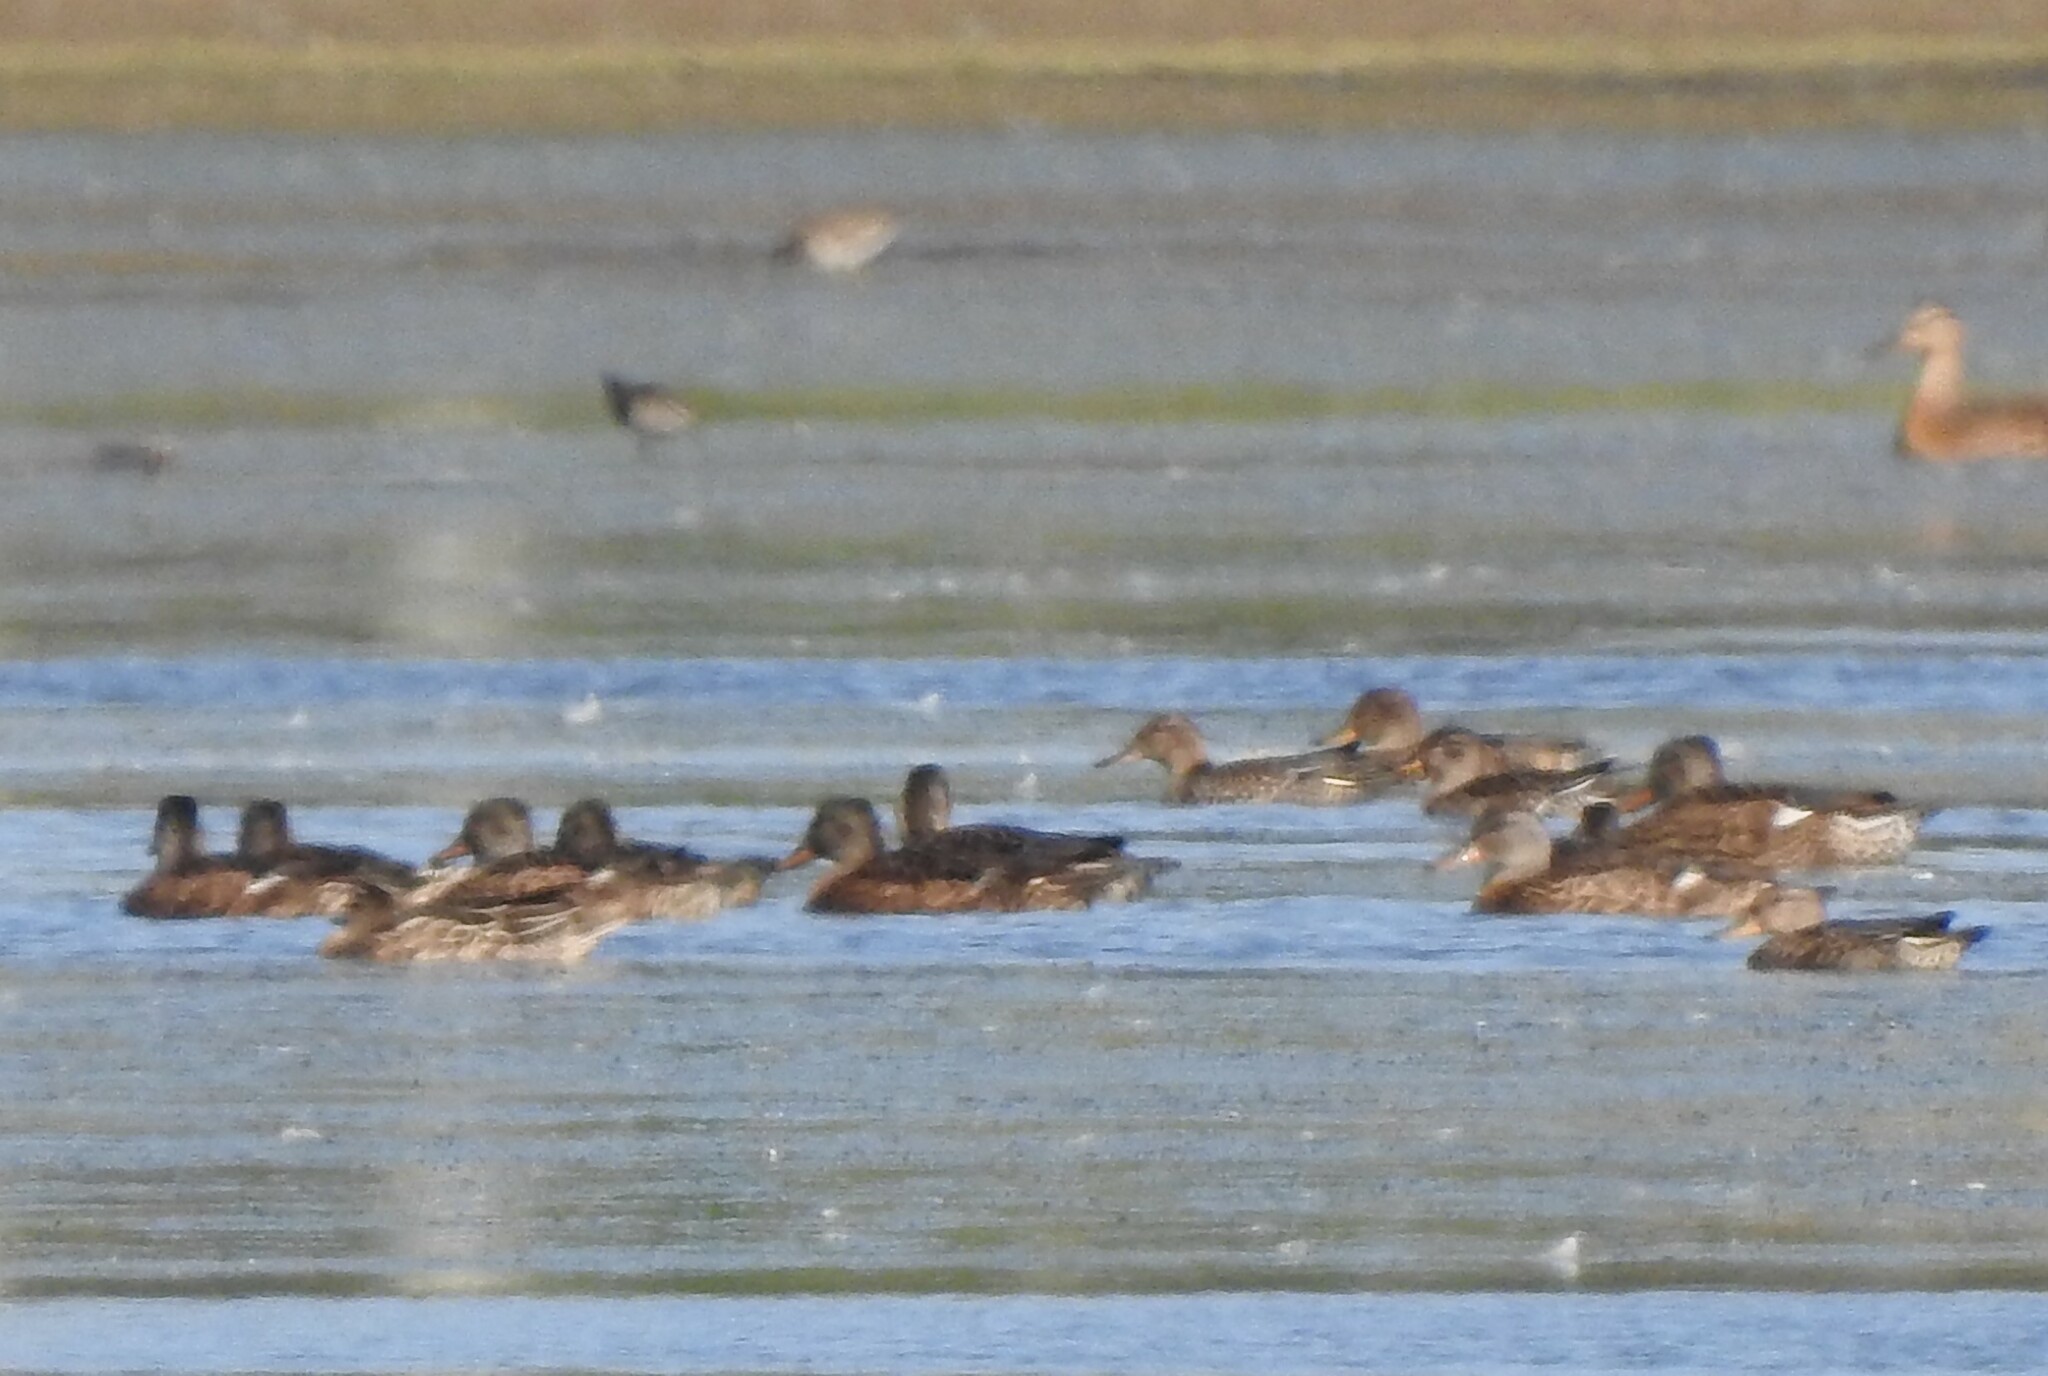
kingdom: Animalia
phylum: Chordata
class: Aves
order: Anseriformes
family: Anatidae
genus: Mareca
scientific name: Mareca strepera
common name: Gadwall
